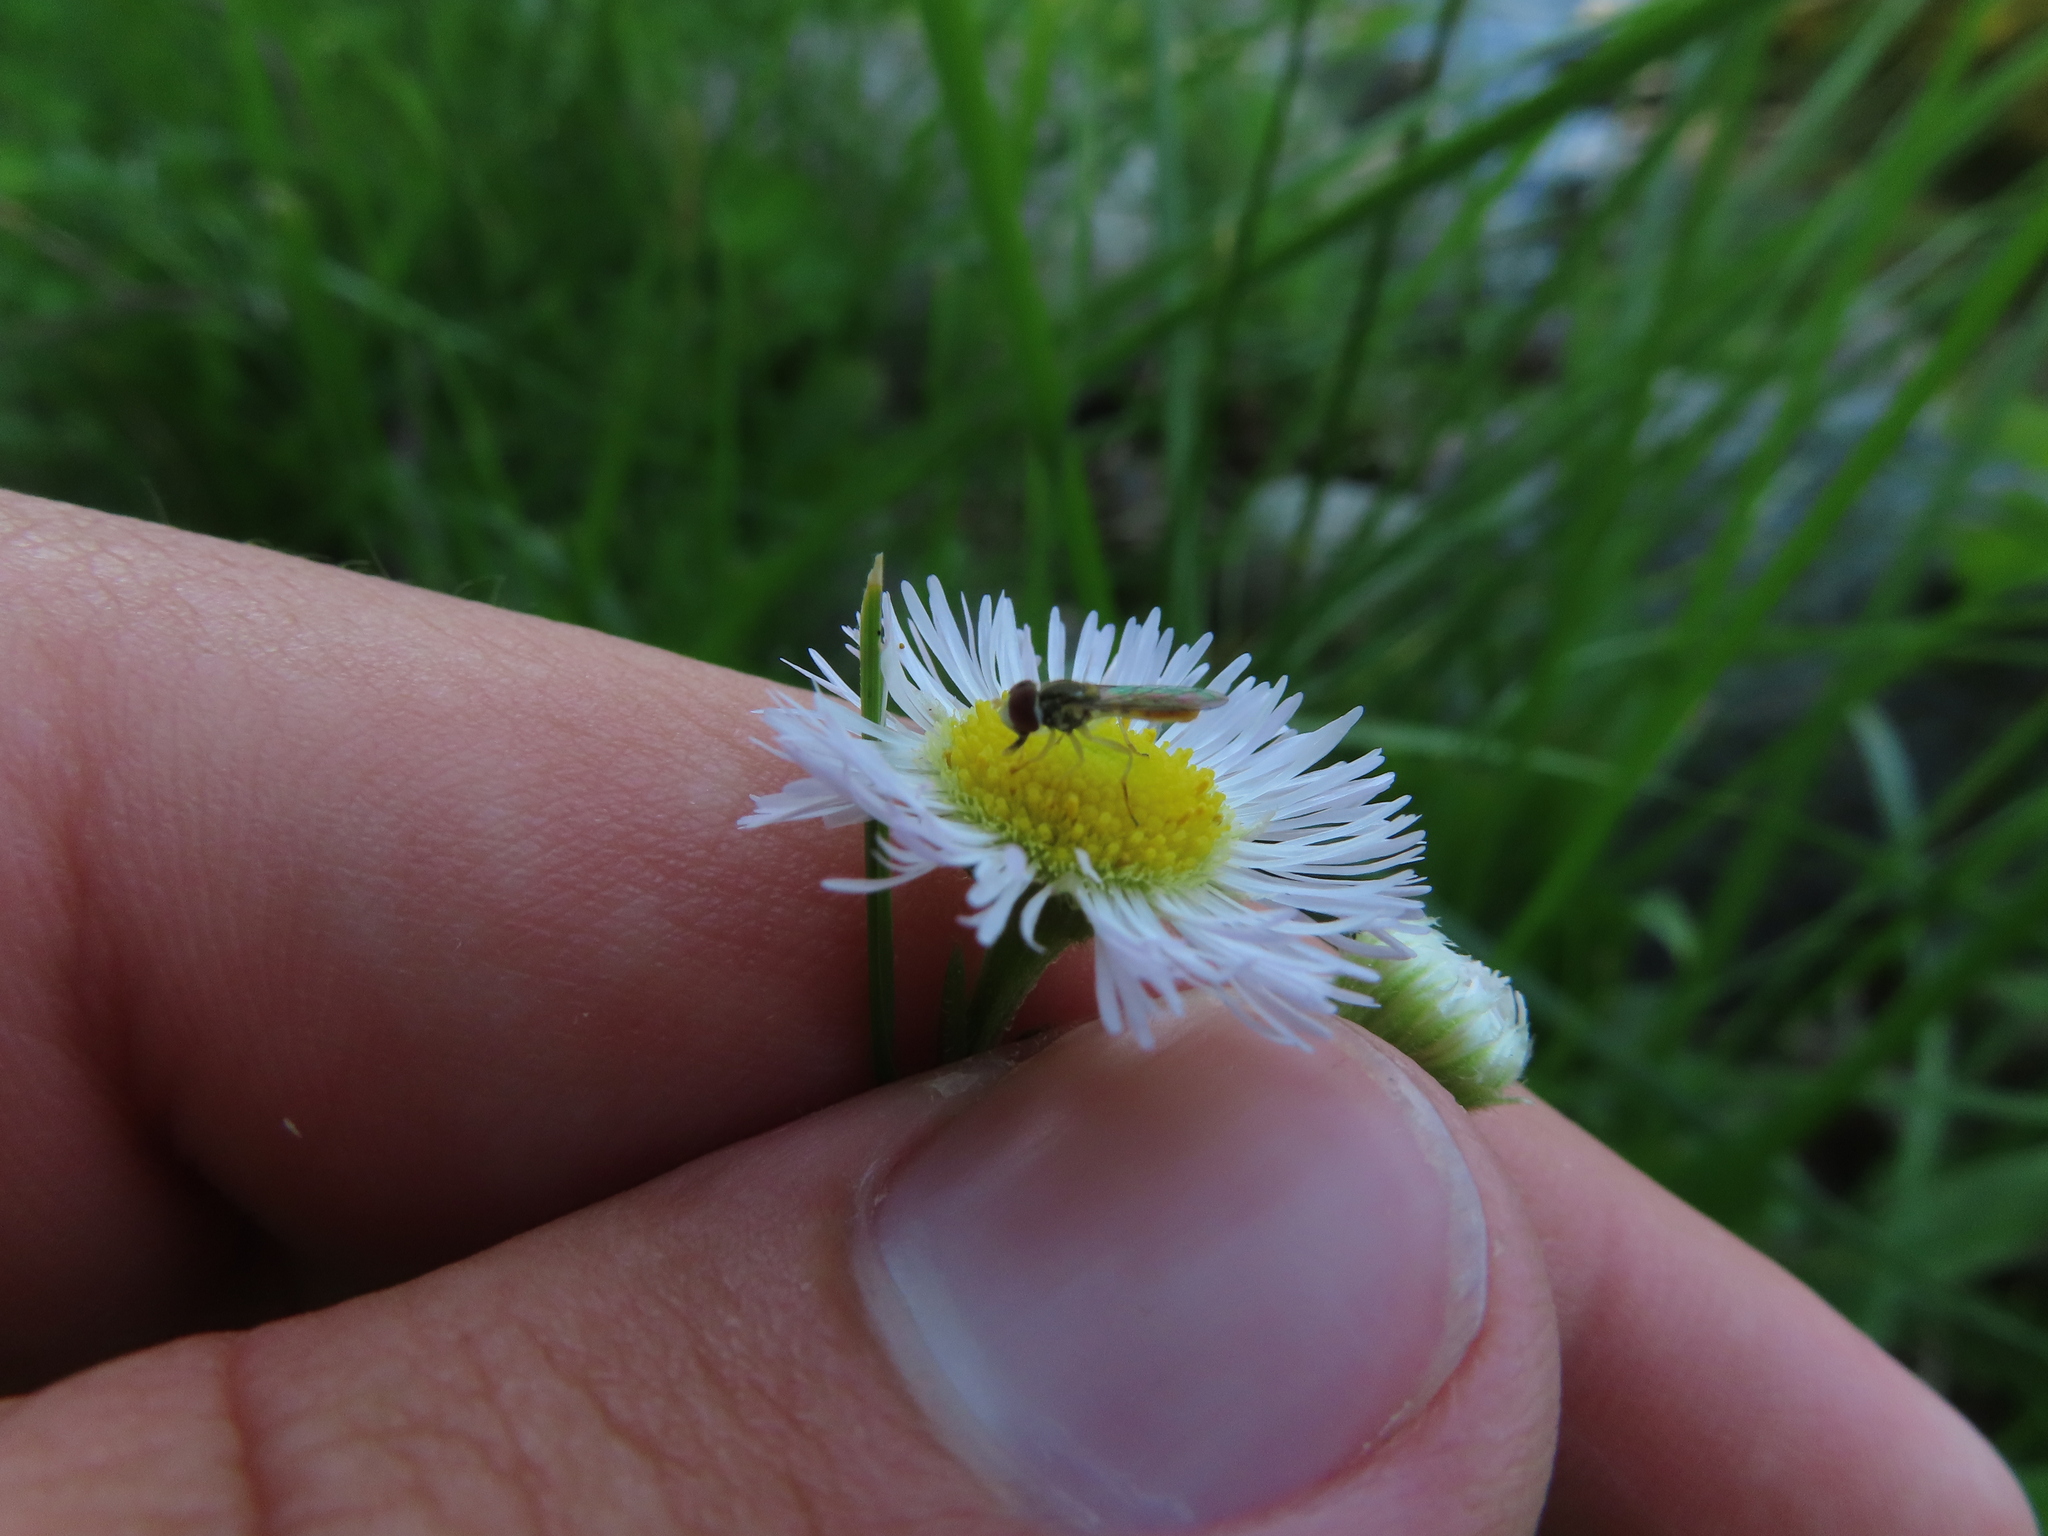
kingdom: Animalia
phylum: Arthropoda
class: Insecta
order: Diptera
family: Syrphidae
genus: Toxomerus
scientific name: Toxomerus marginatus
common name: Syrphid fly
